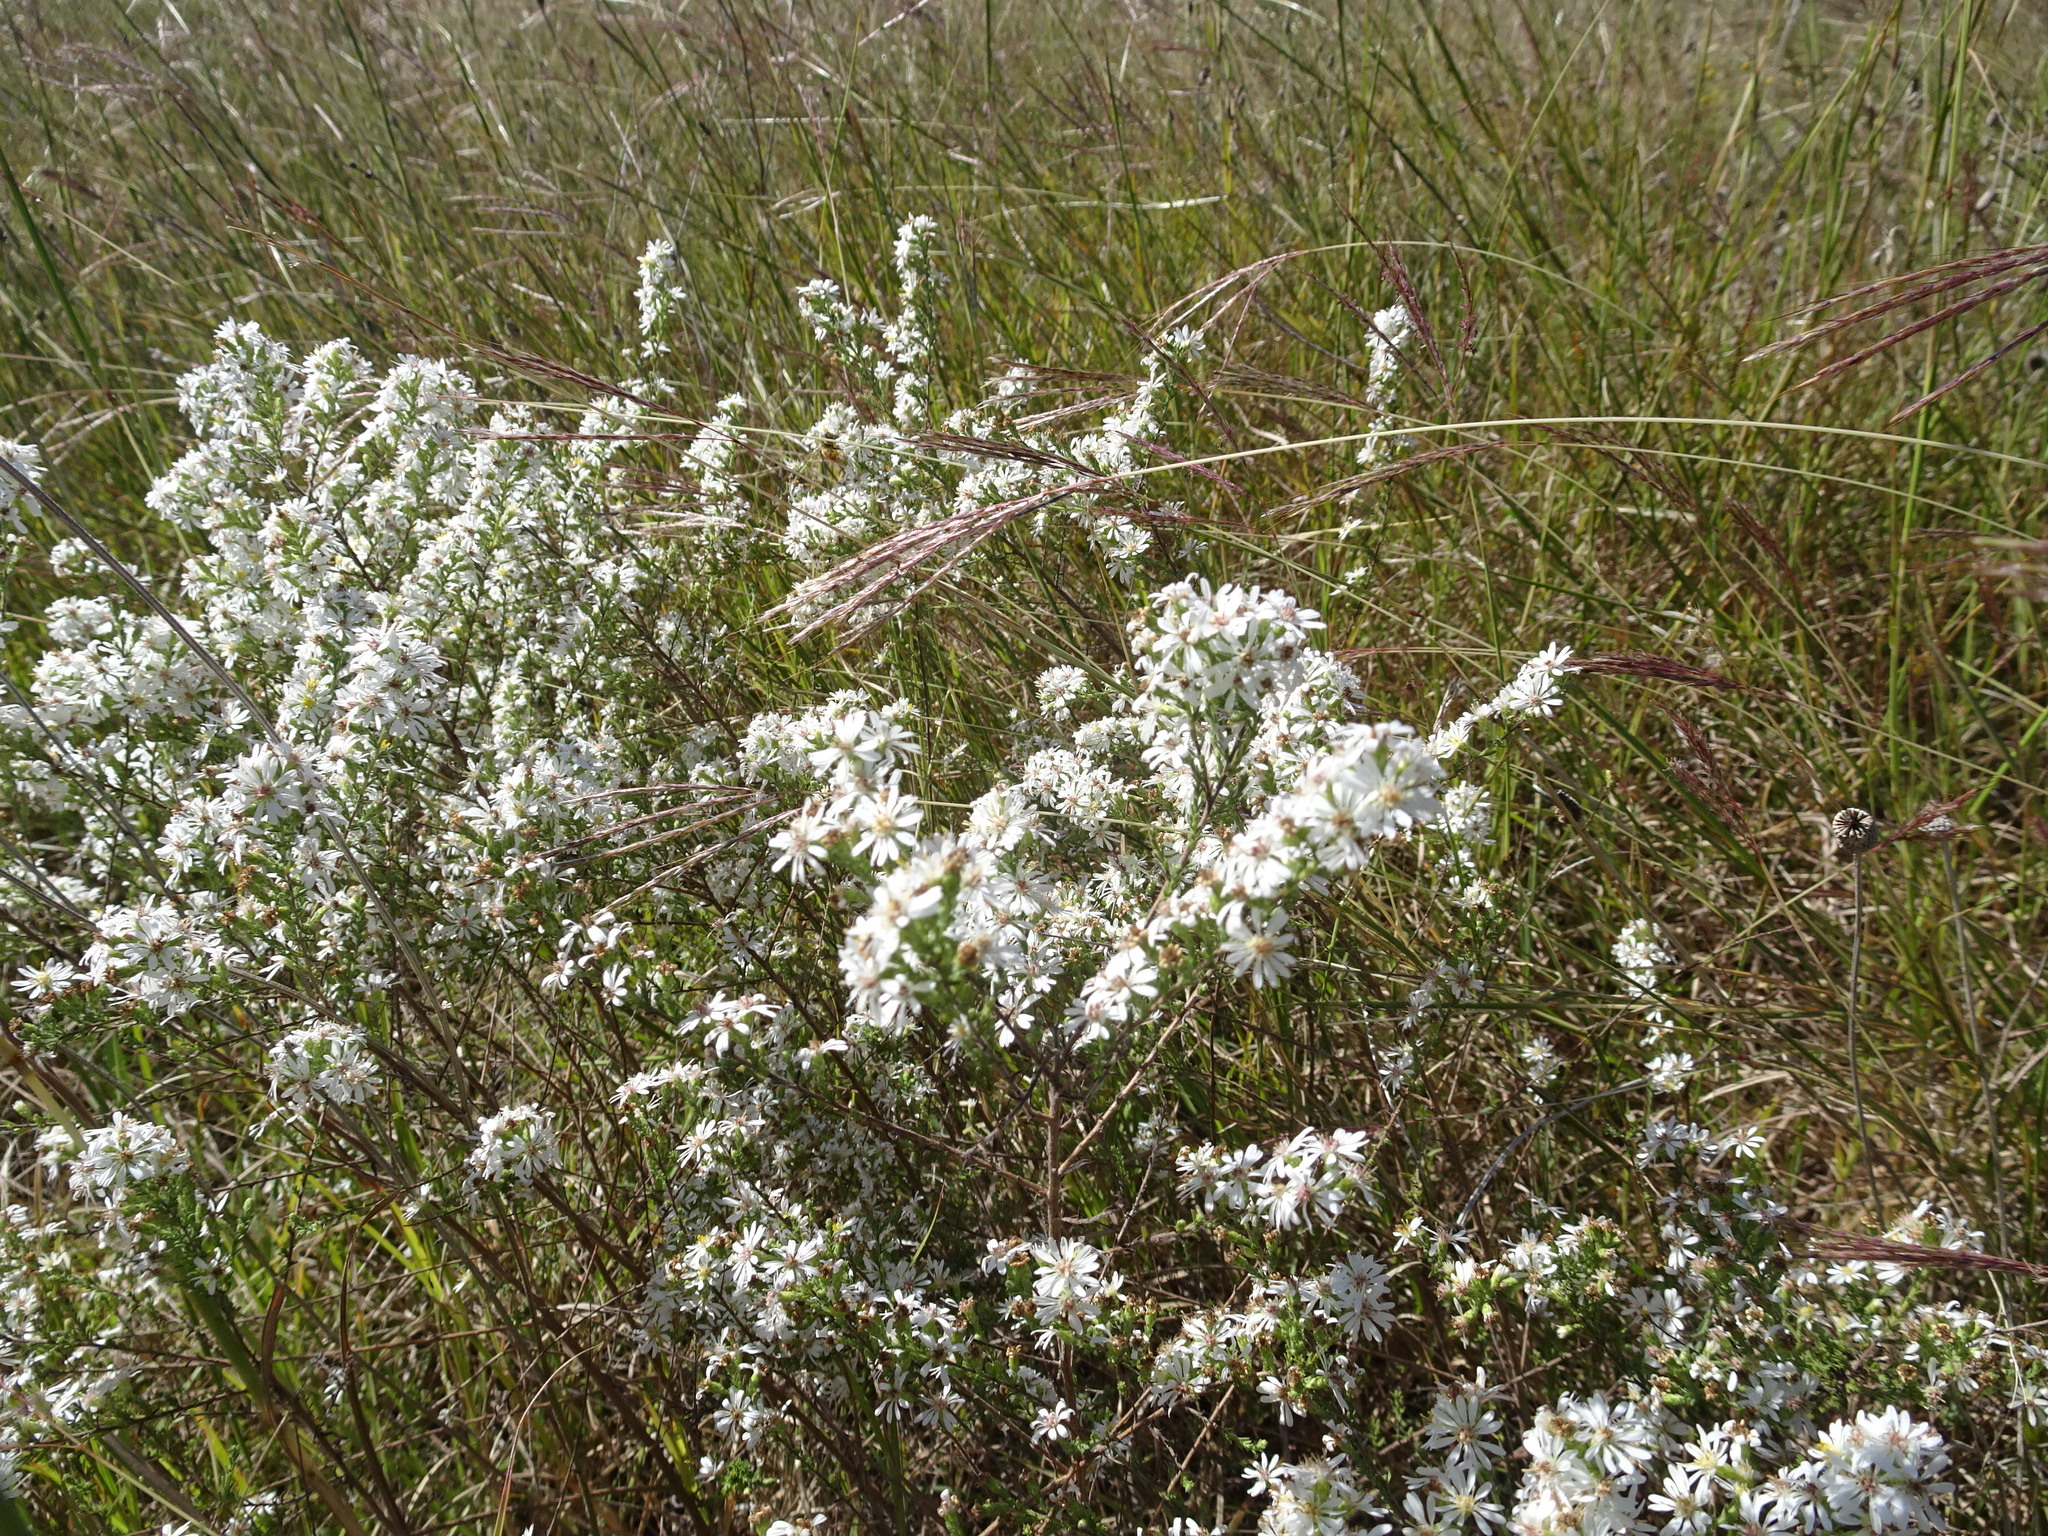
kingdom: Plantae
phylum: Tracheophyta
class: Magnoliopsida
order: Asterales
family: Asteraceae
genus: Symphyotrichum
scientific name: Symphyotrichum ericoides
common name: Heath aster
